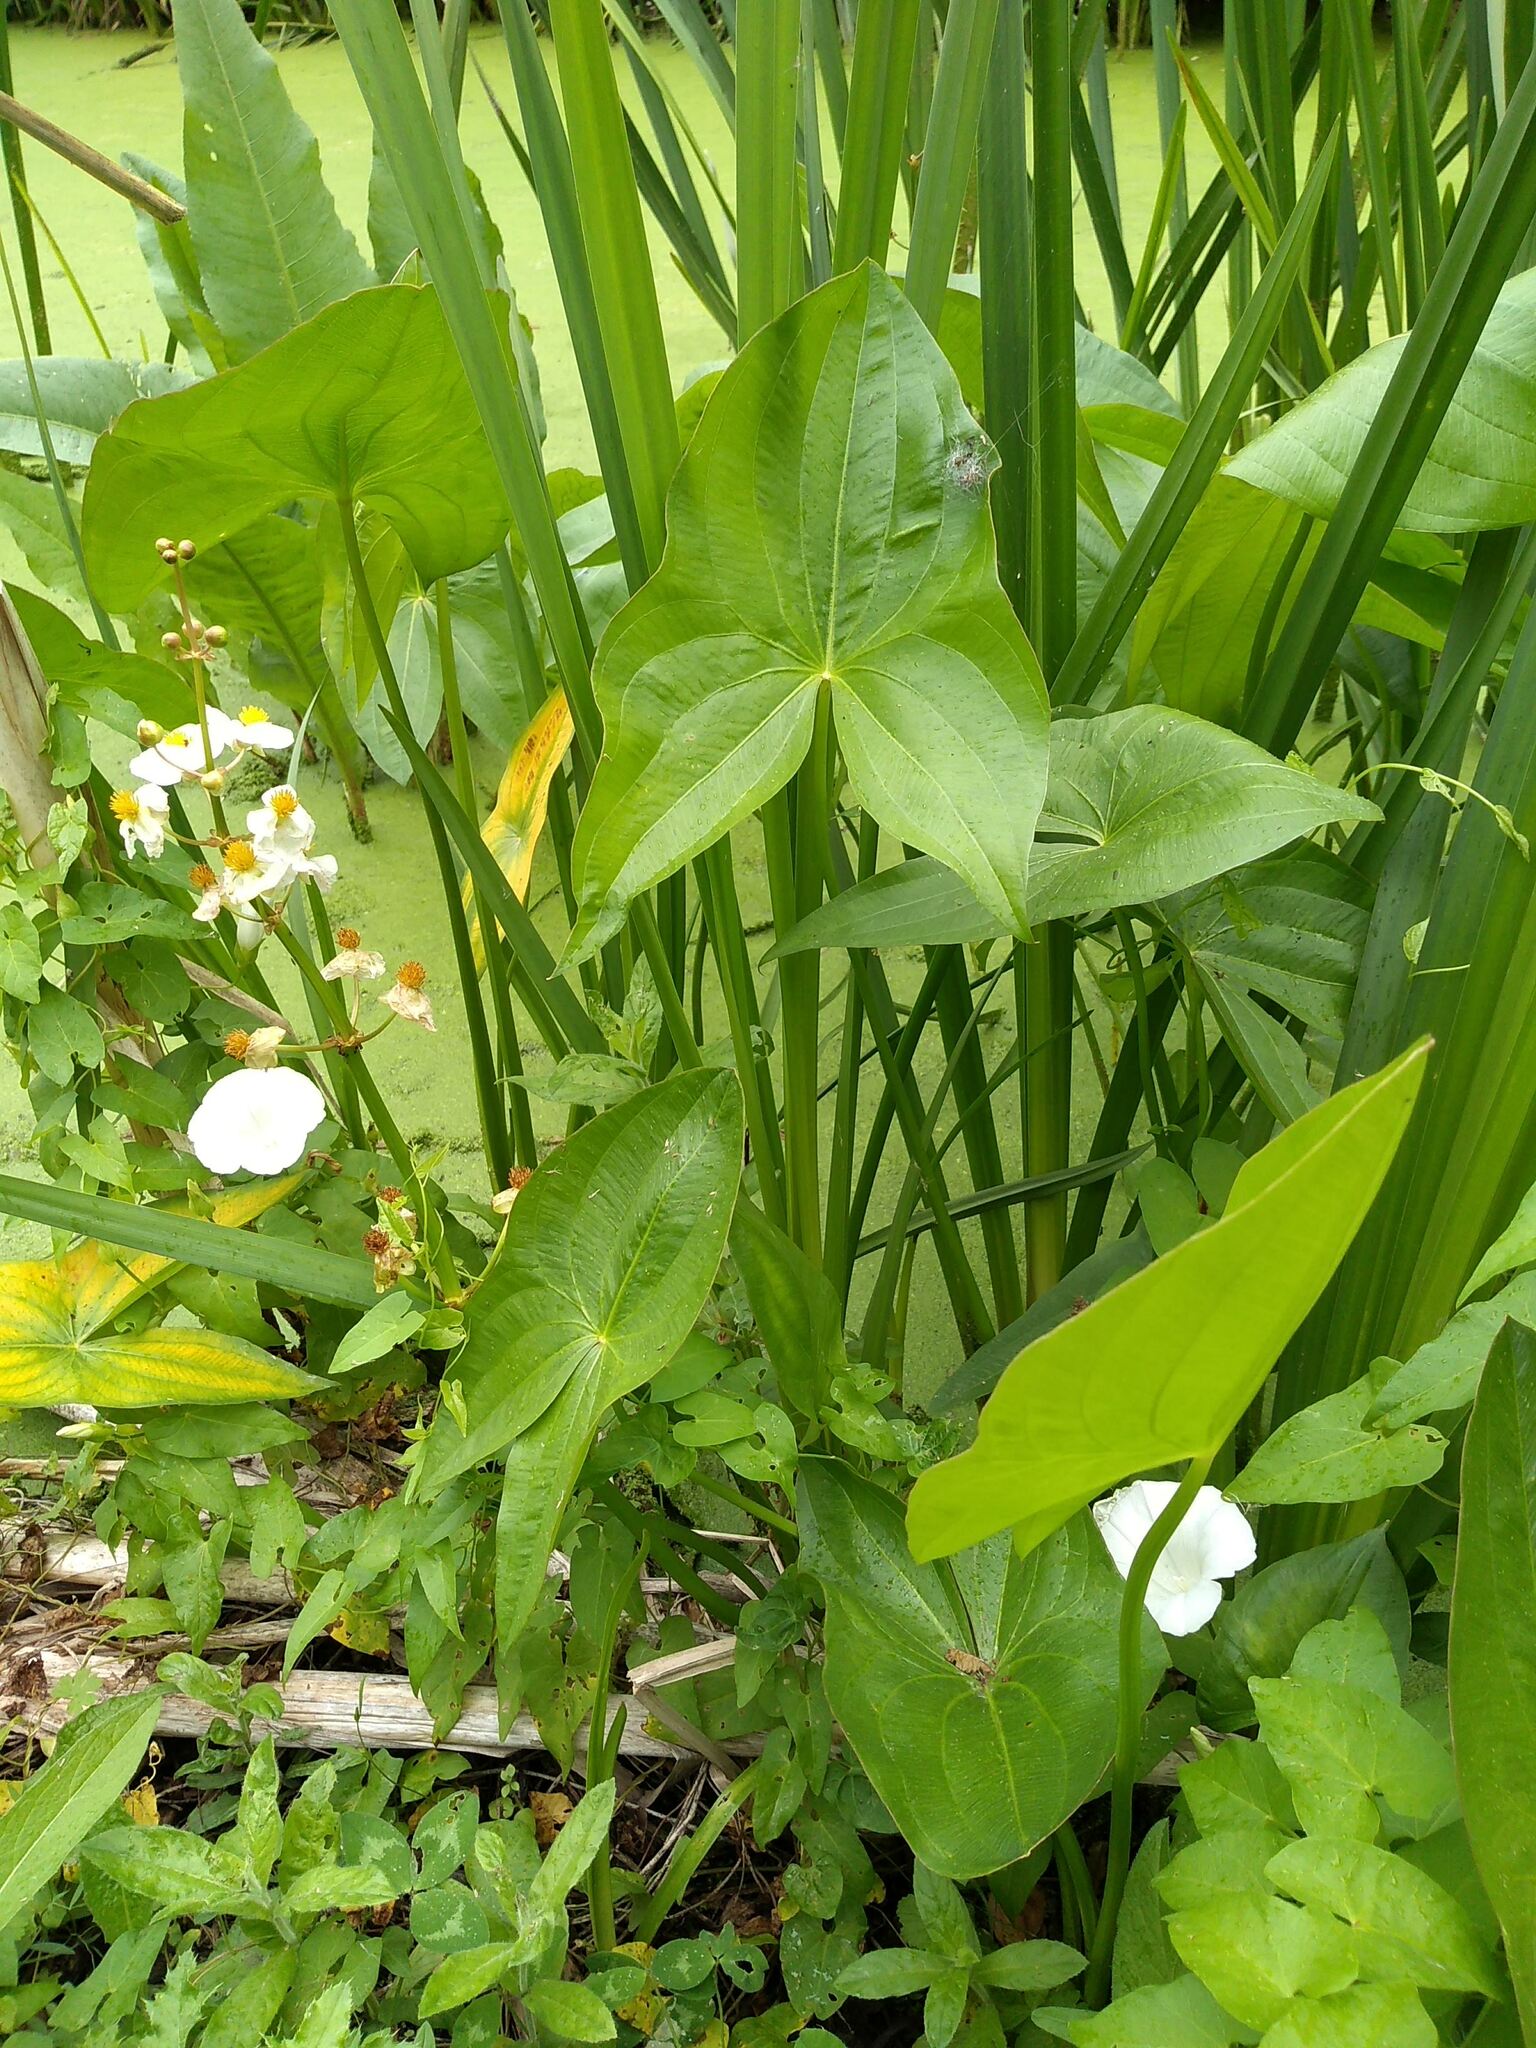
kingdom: Plantae
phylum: Tracheophyta
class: Liliopsida
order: Alismatales
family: Alismataceae
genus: Sagittaria
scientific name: Sagittaria latifolia
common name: Duck-potato
